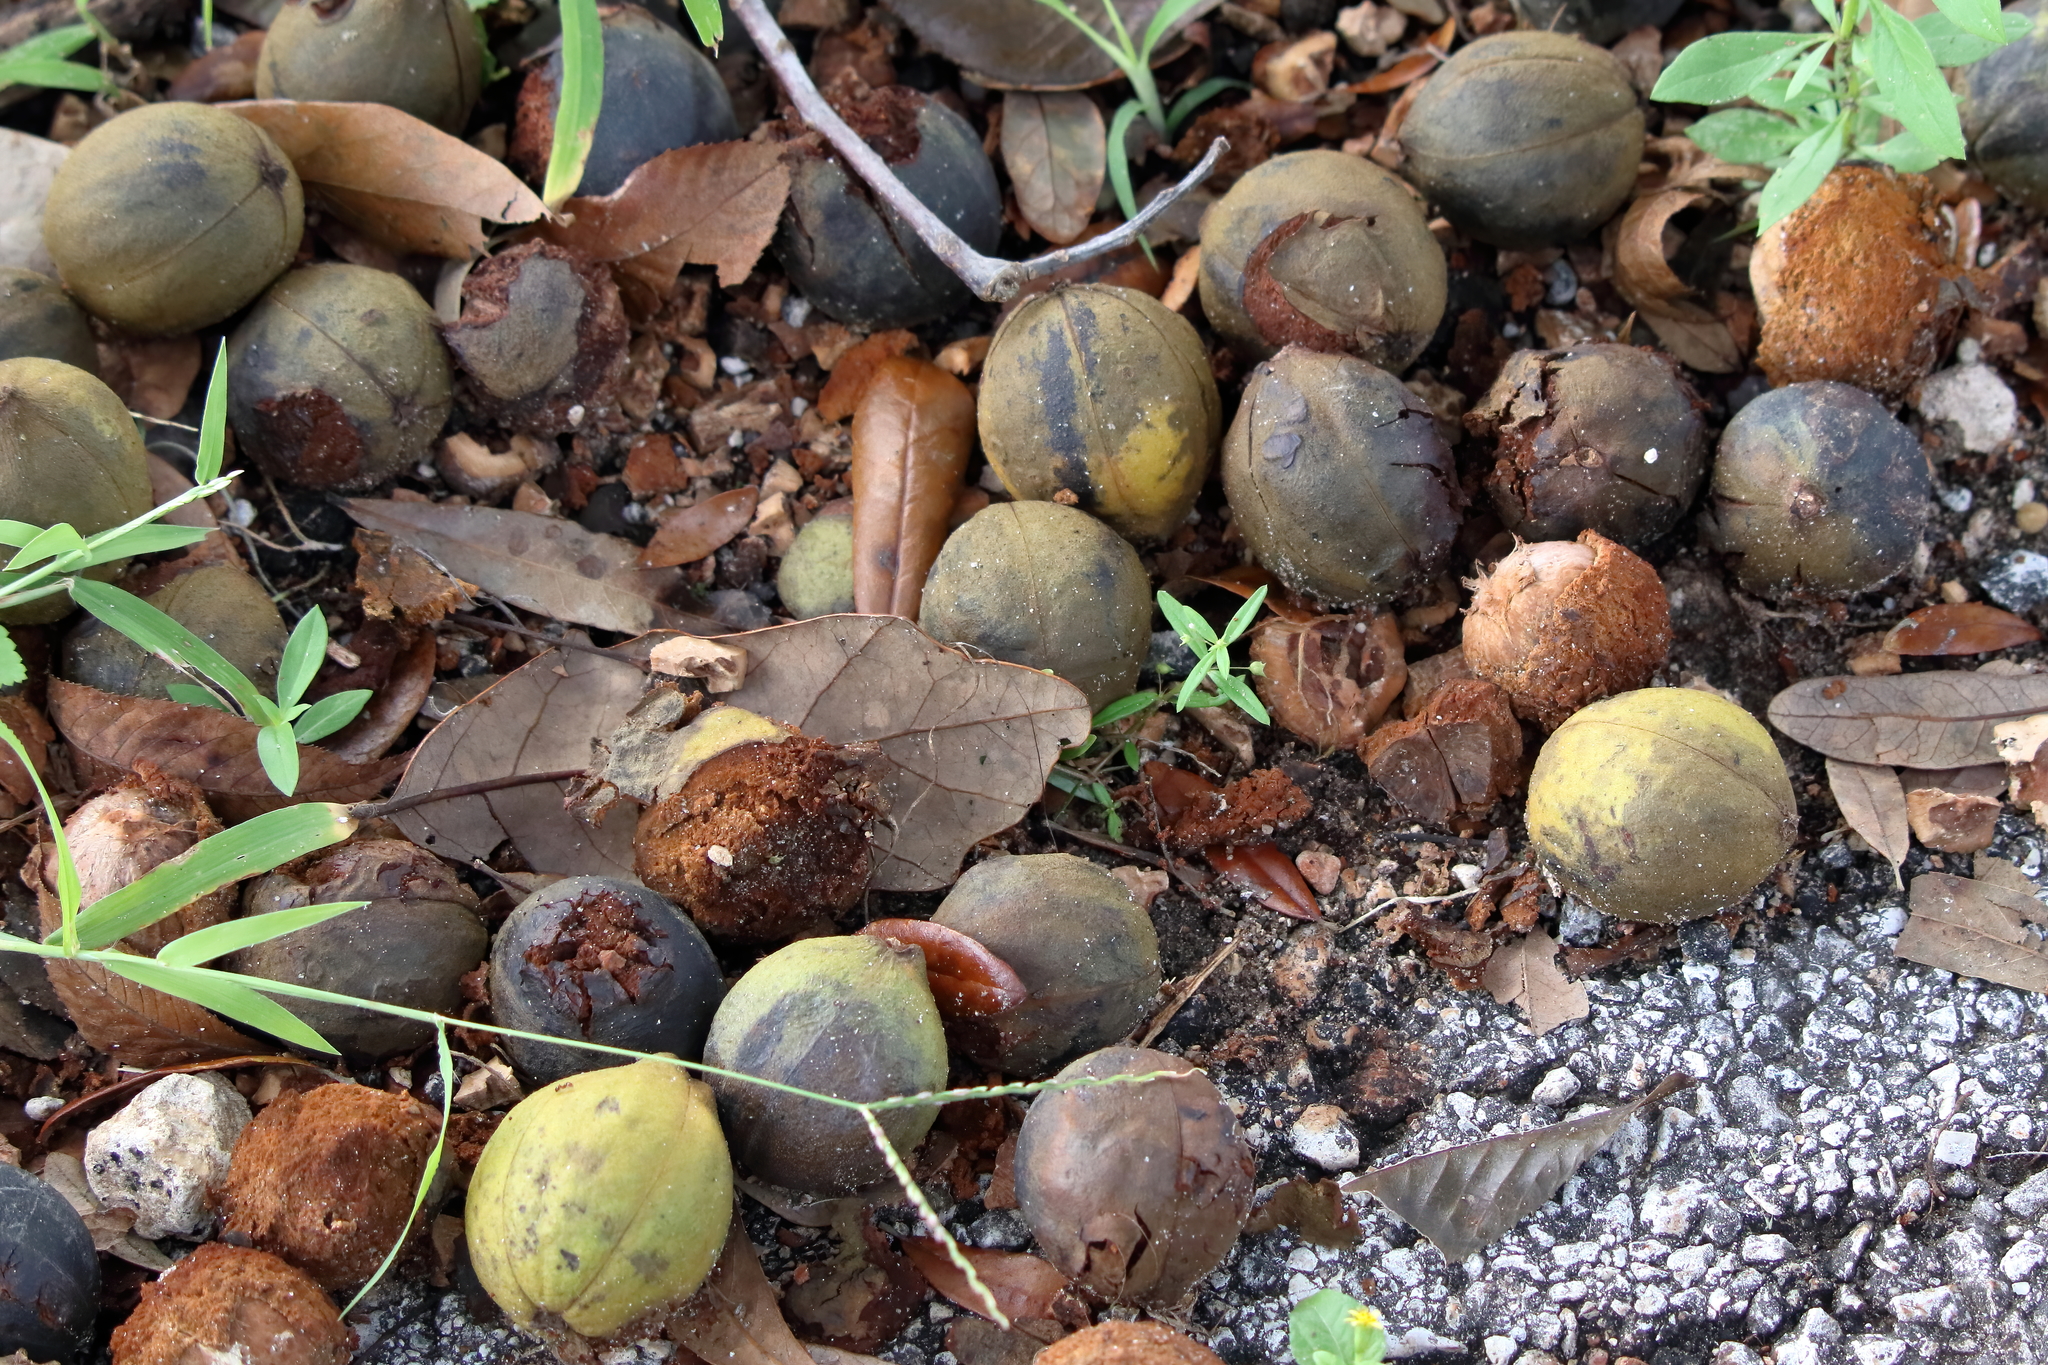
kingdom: Plantae
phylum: Tracheophyta
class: Magnoliopsida
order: Fagales
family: Juglandaceae
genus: Carya
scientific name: Carya glabra
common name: Pignut hickory
